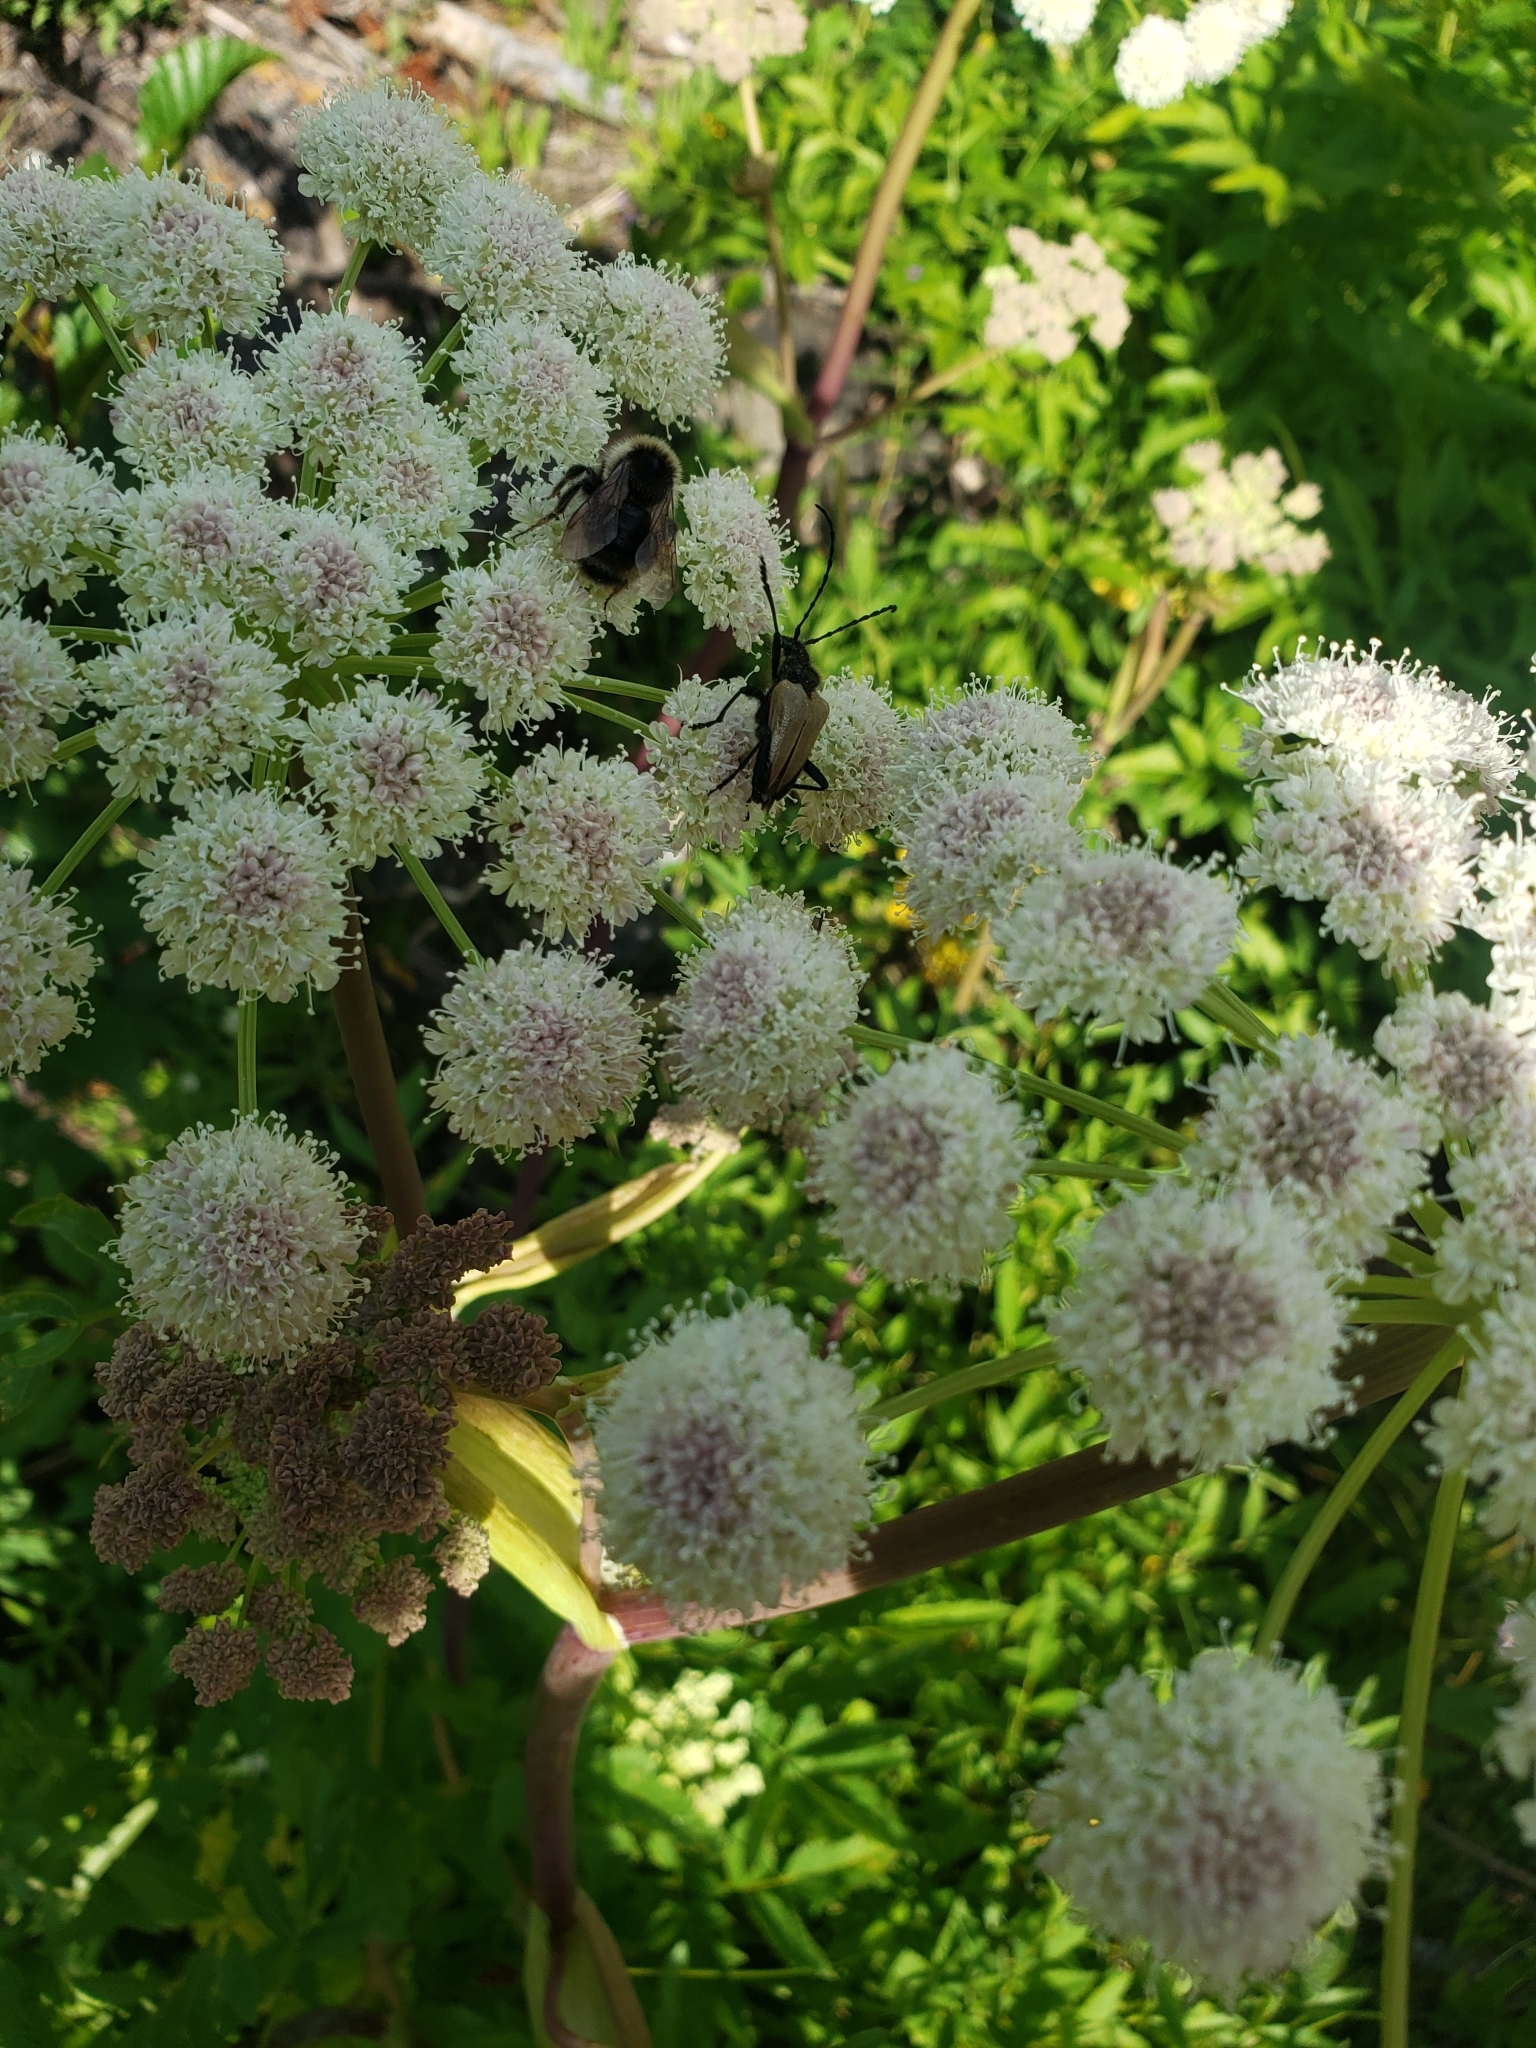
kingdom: Animalia
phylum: Arthropoda
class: Insecta
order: Coleoptera
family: Cerambycidae
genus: Pachyta
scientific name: Pachyta armata
